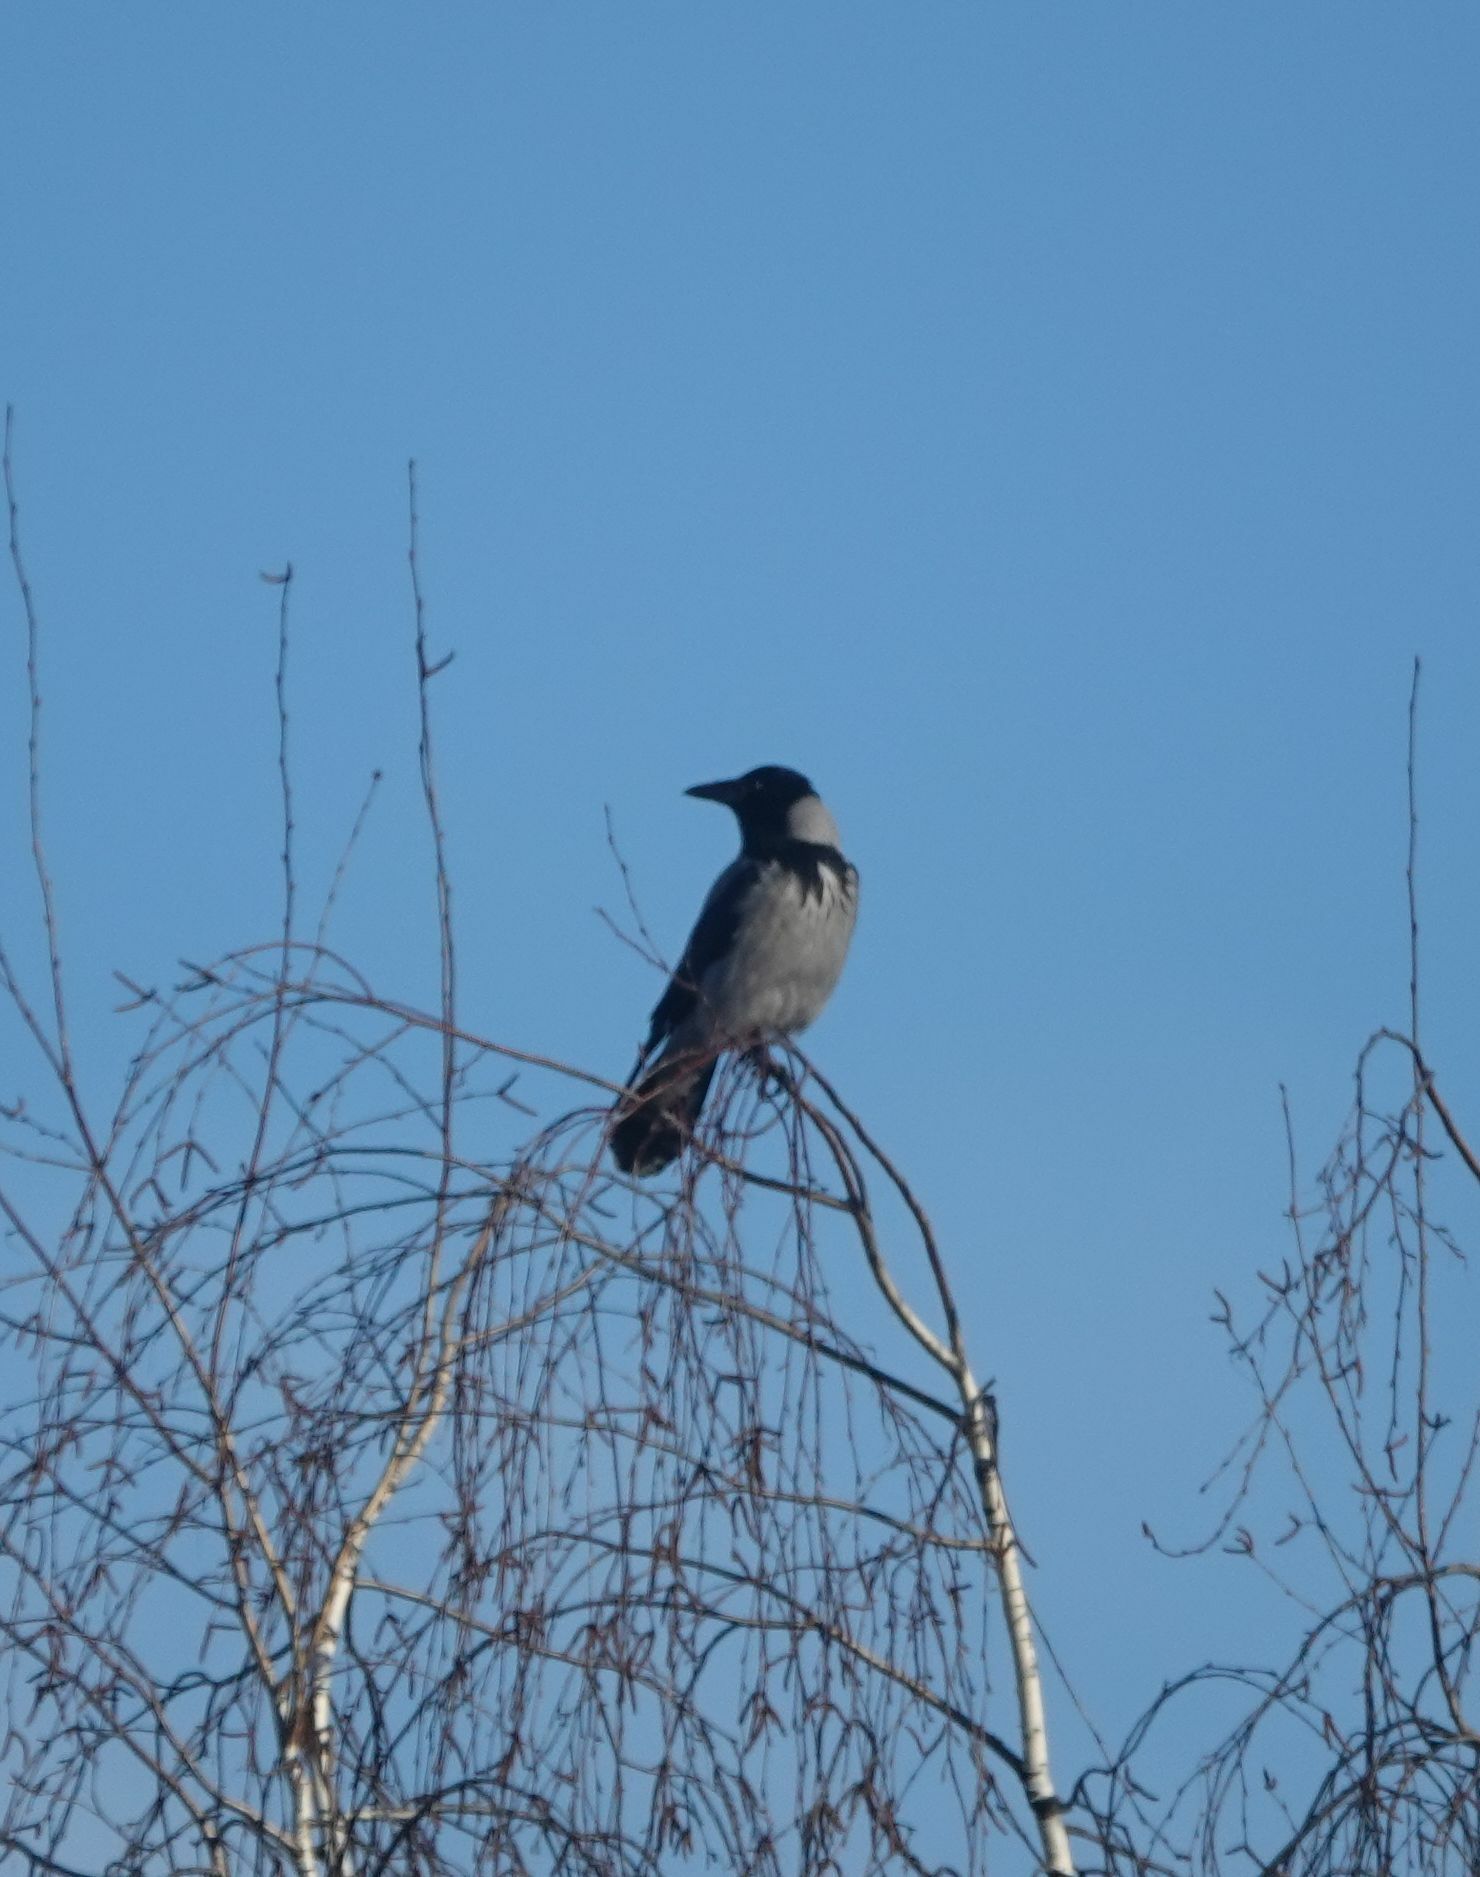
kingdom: Animalia
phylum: Chordata
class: Aves
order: Passeriformes
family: Corvidae
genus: Corvus
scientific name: Corvus cornix
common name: Hooded crow
